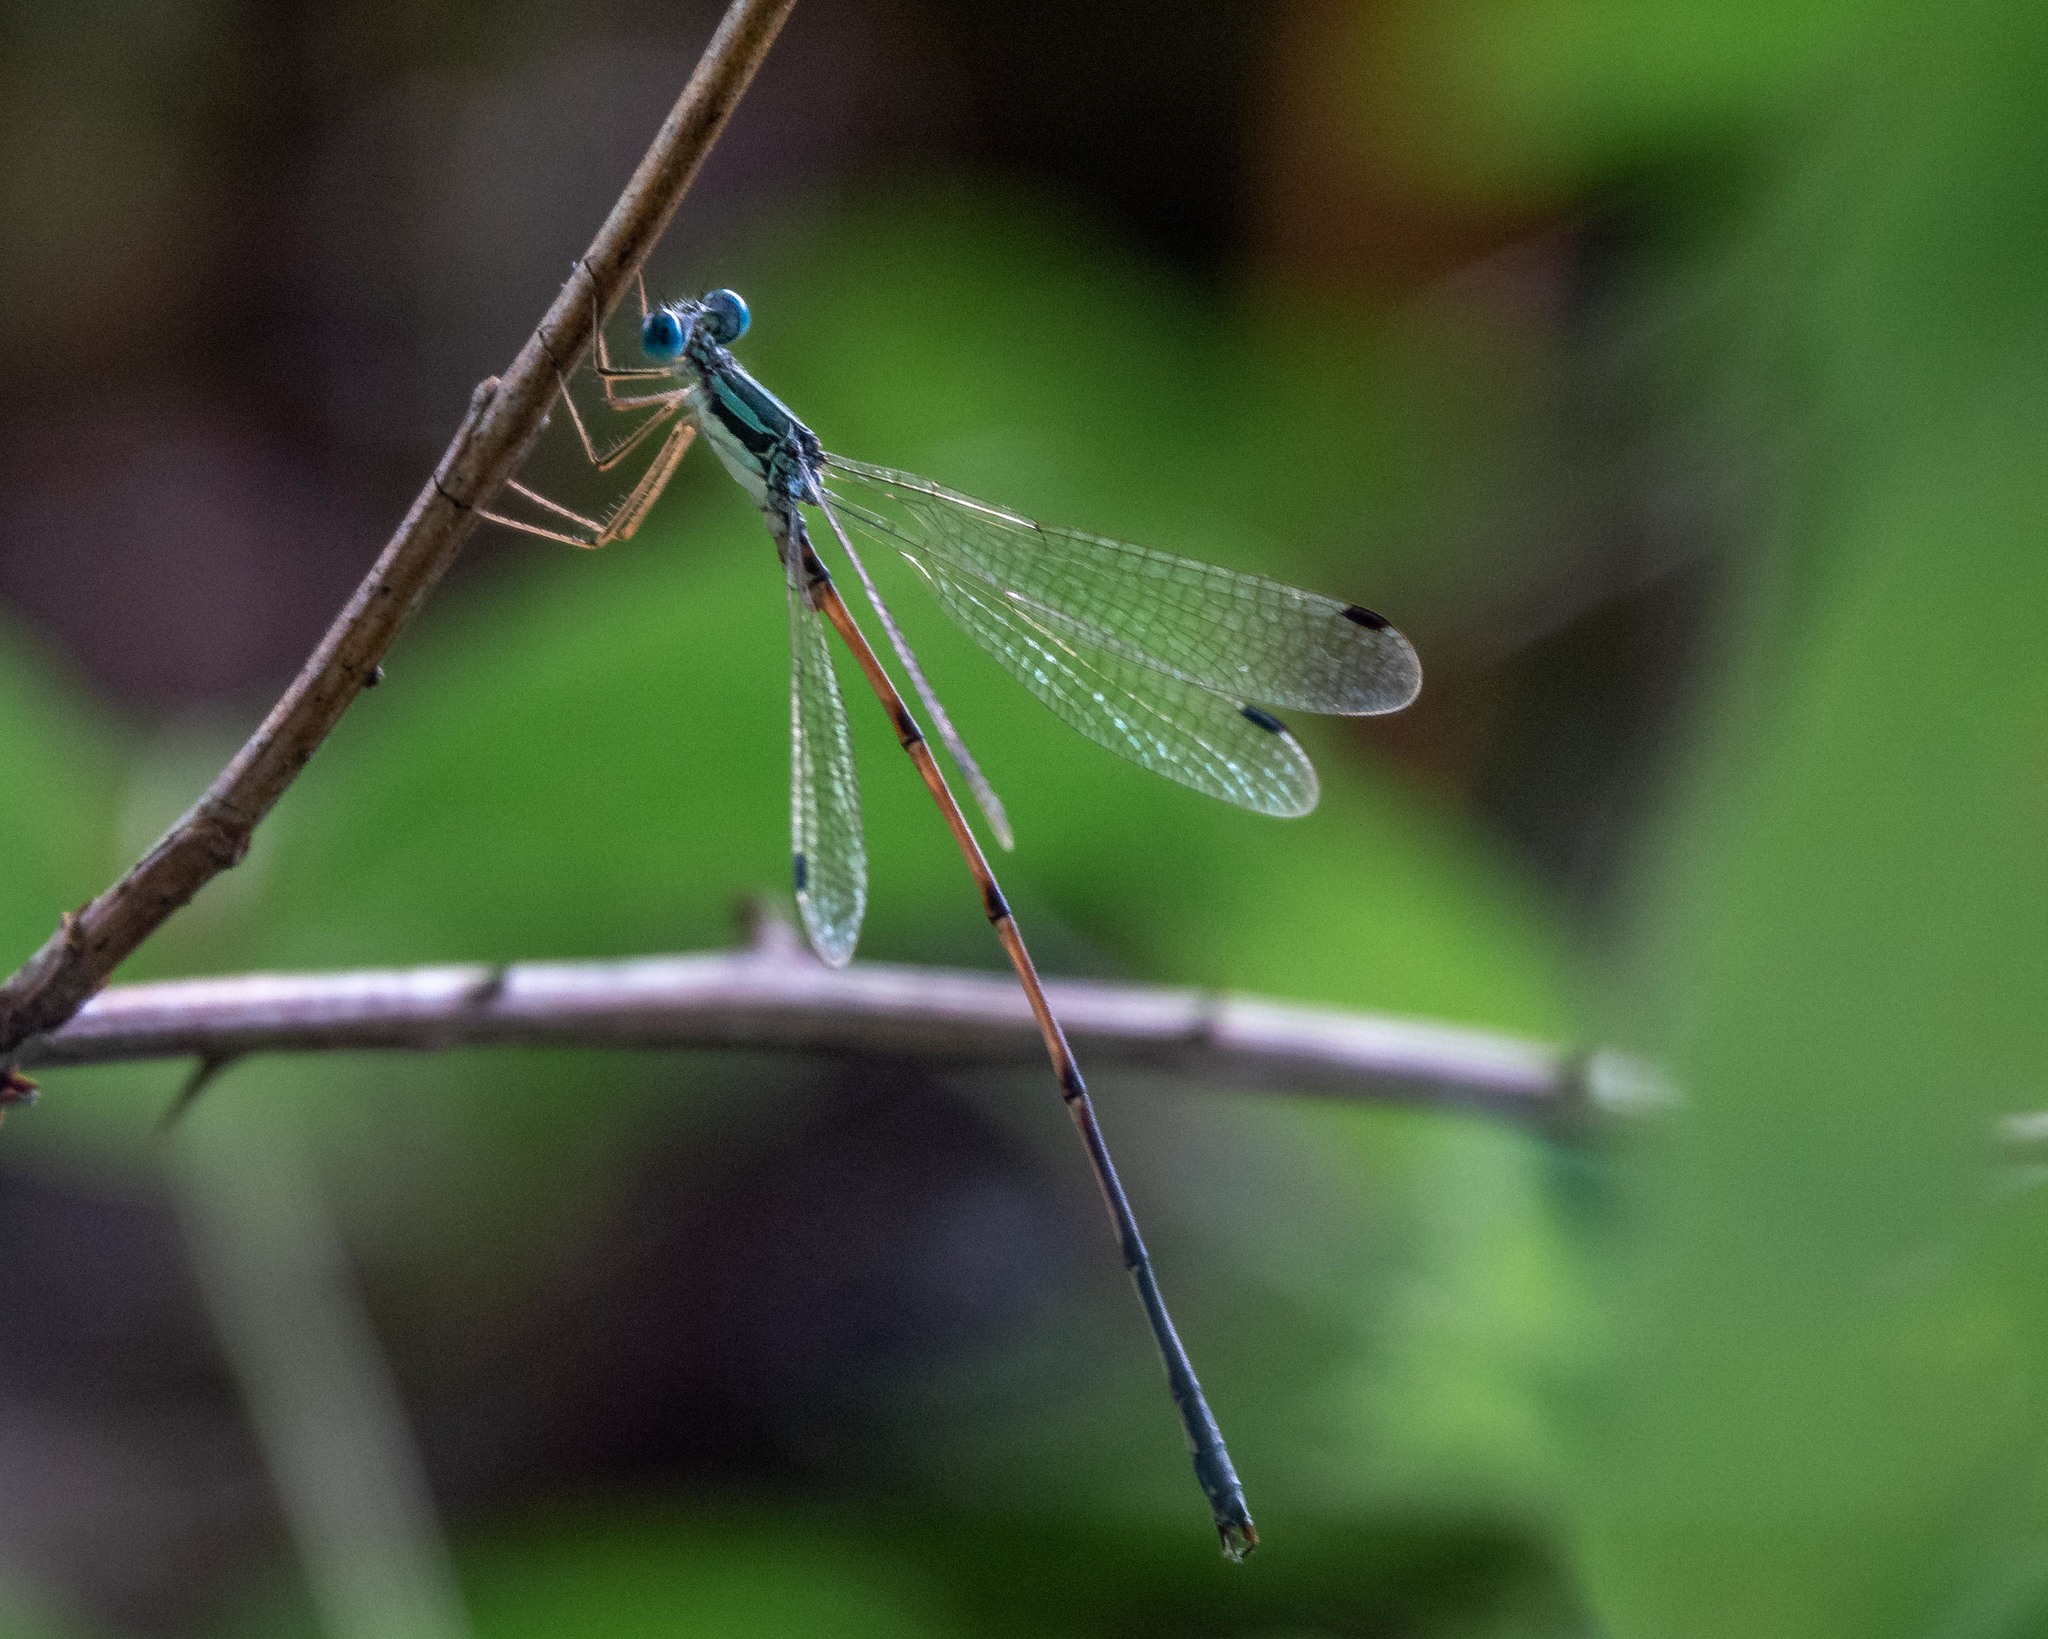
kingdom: Animalia
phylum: Arthropoda
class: Insecta
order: Odonata
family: Lestidae
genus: Lestes
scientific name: Lestes rectangularis
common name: Slender spreadwing
